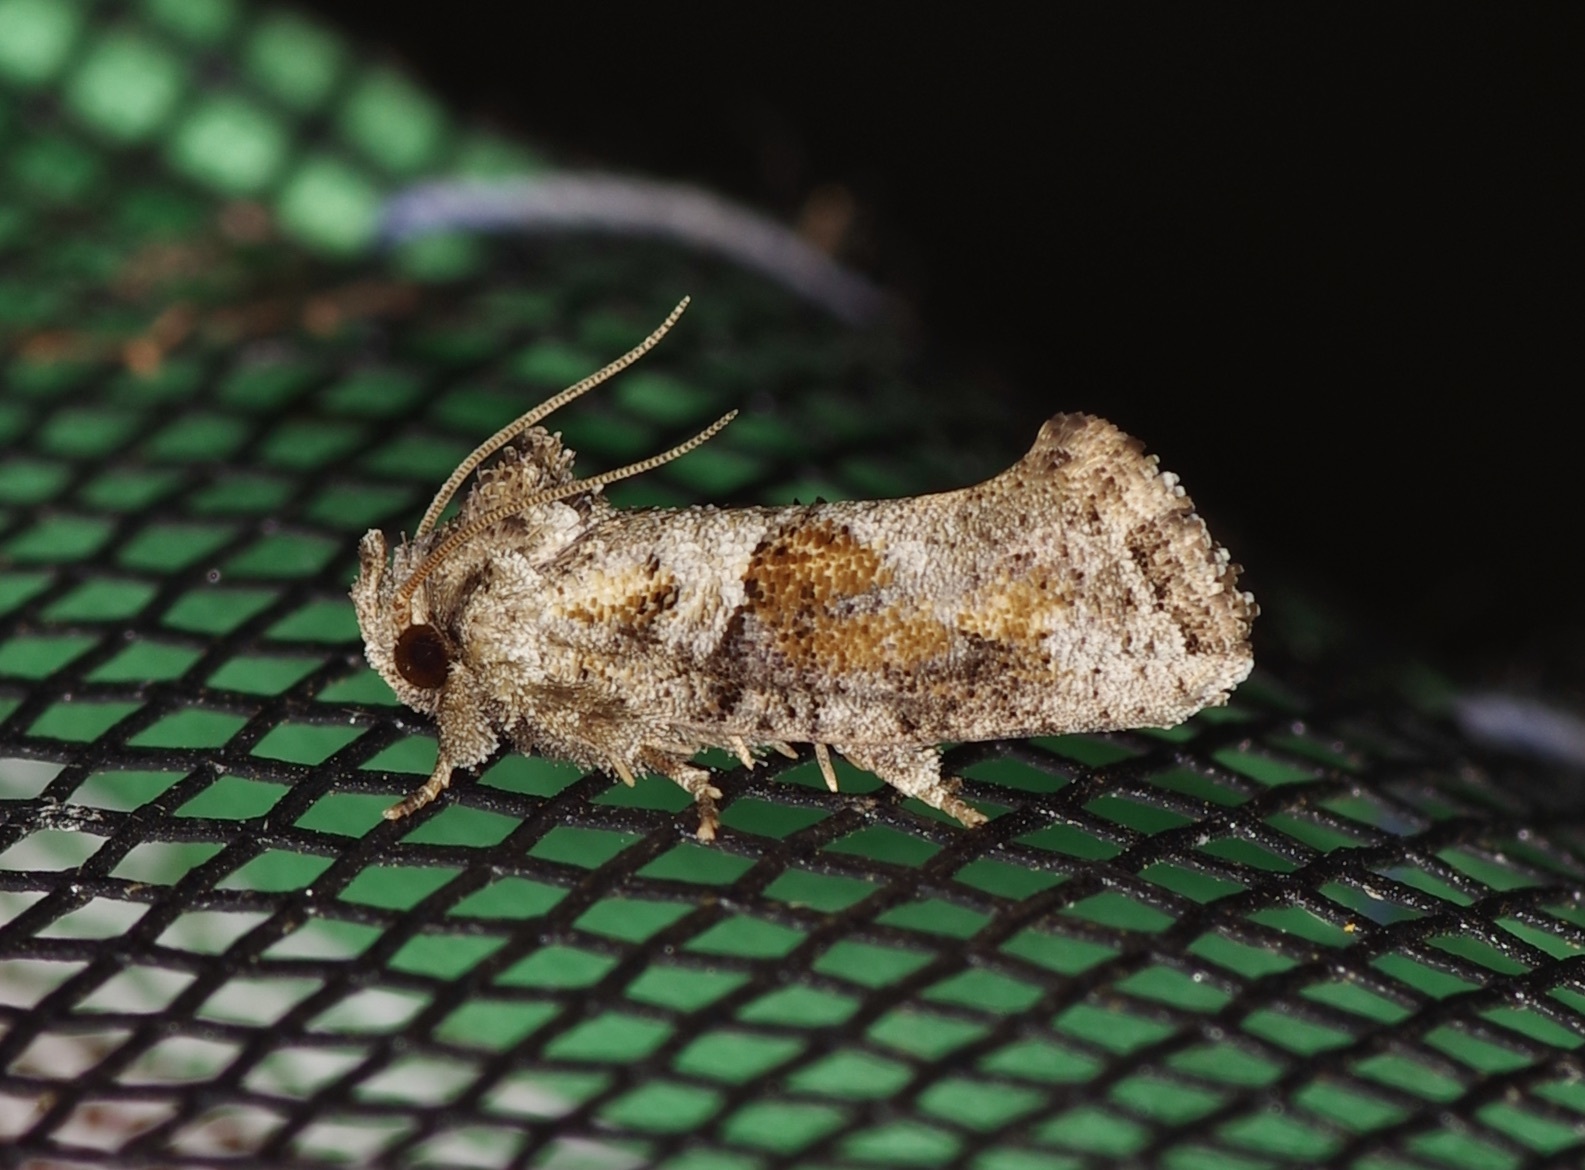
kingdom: Animalia
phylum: Arthropoda
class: Insecta
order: Lepidoptera
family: Tineidae
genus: Acrolophus
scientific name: Acrolophus piger
